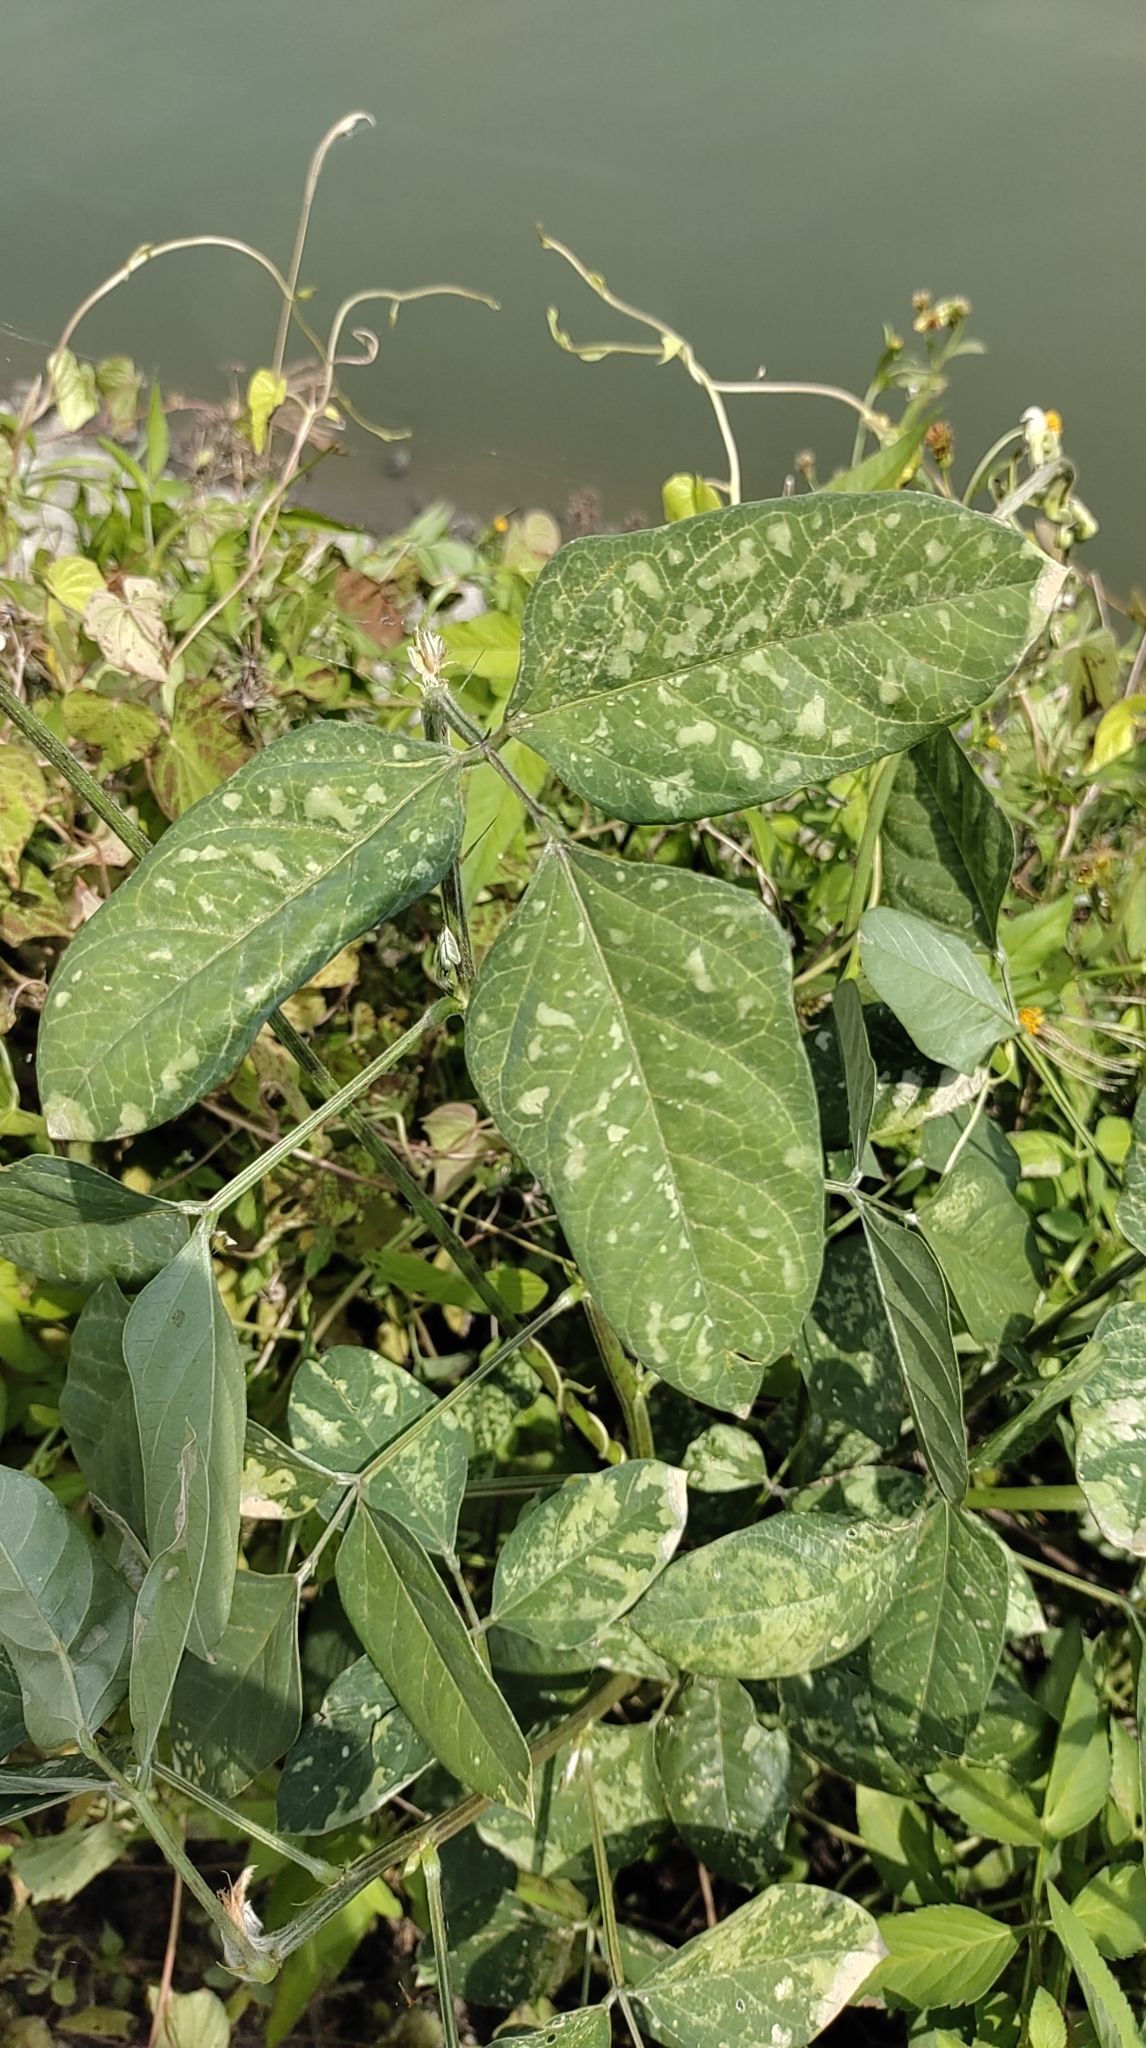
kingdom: Plantae
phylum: Tracheophyta
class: Magnoliopsida
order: Fabales
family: Fabaceae
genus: Macroptilium
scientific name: Macroptilium lathyroides
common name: Wild bushbean
